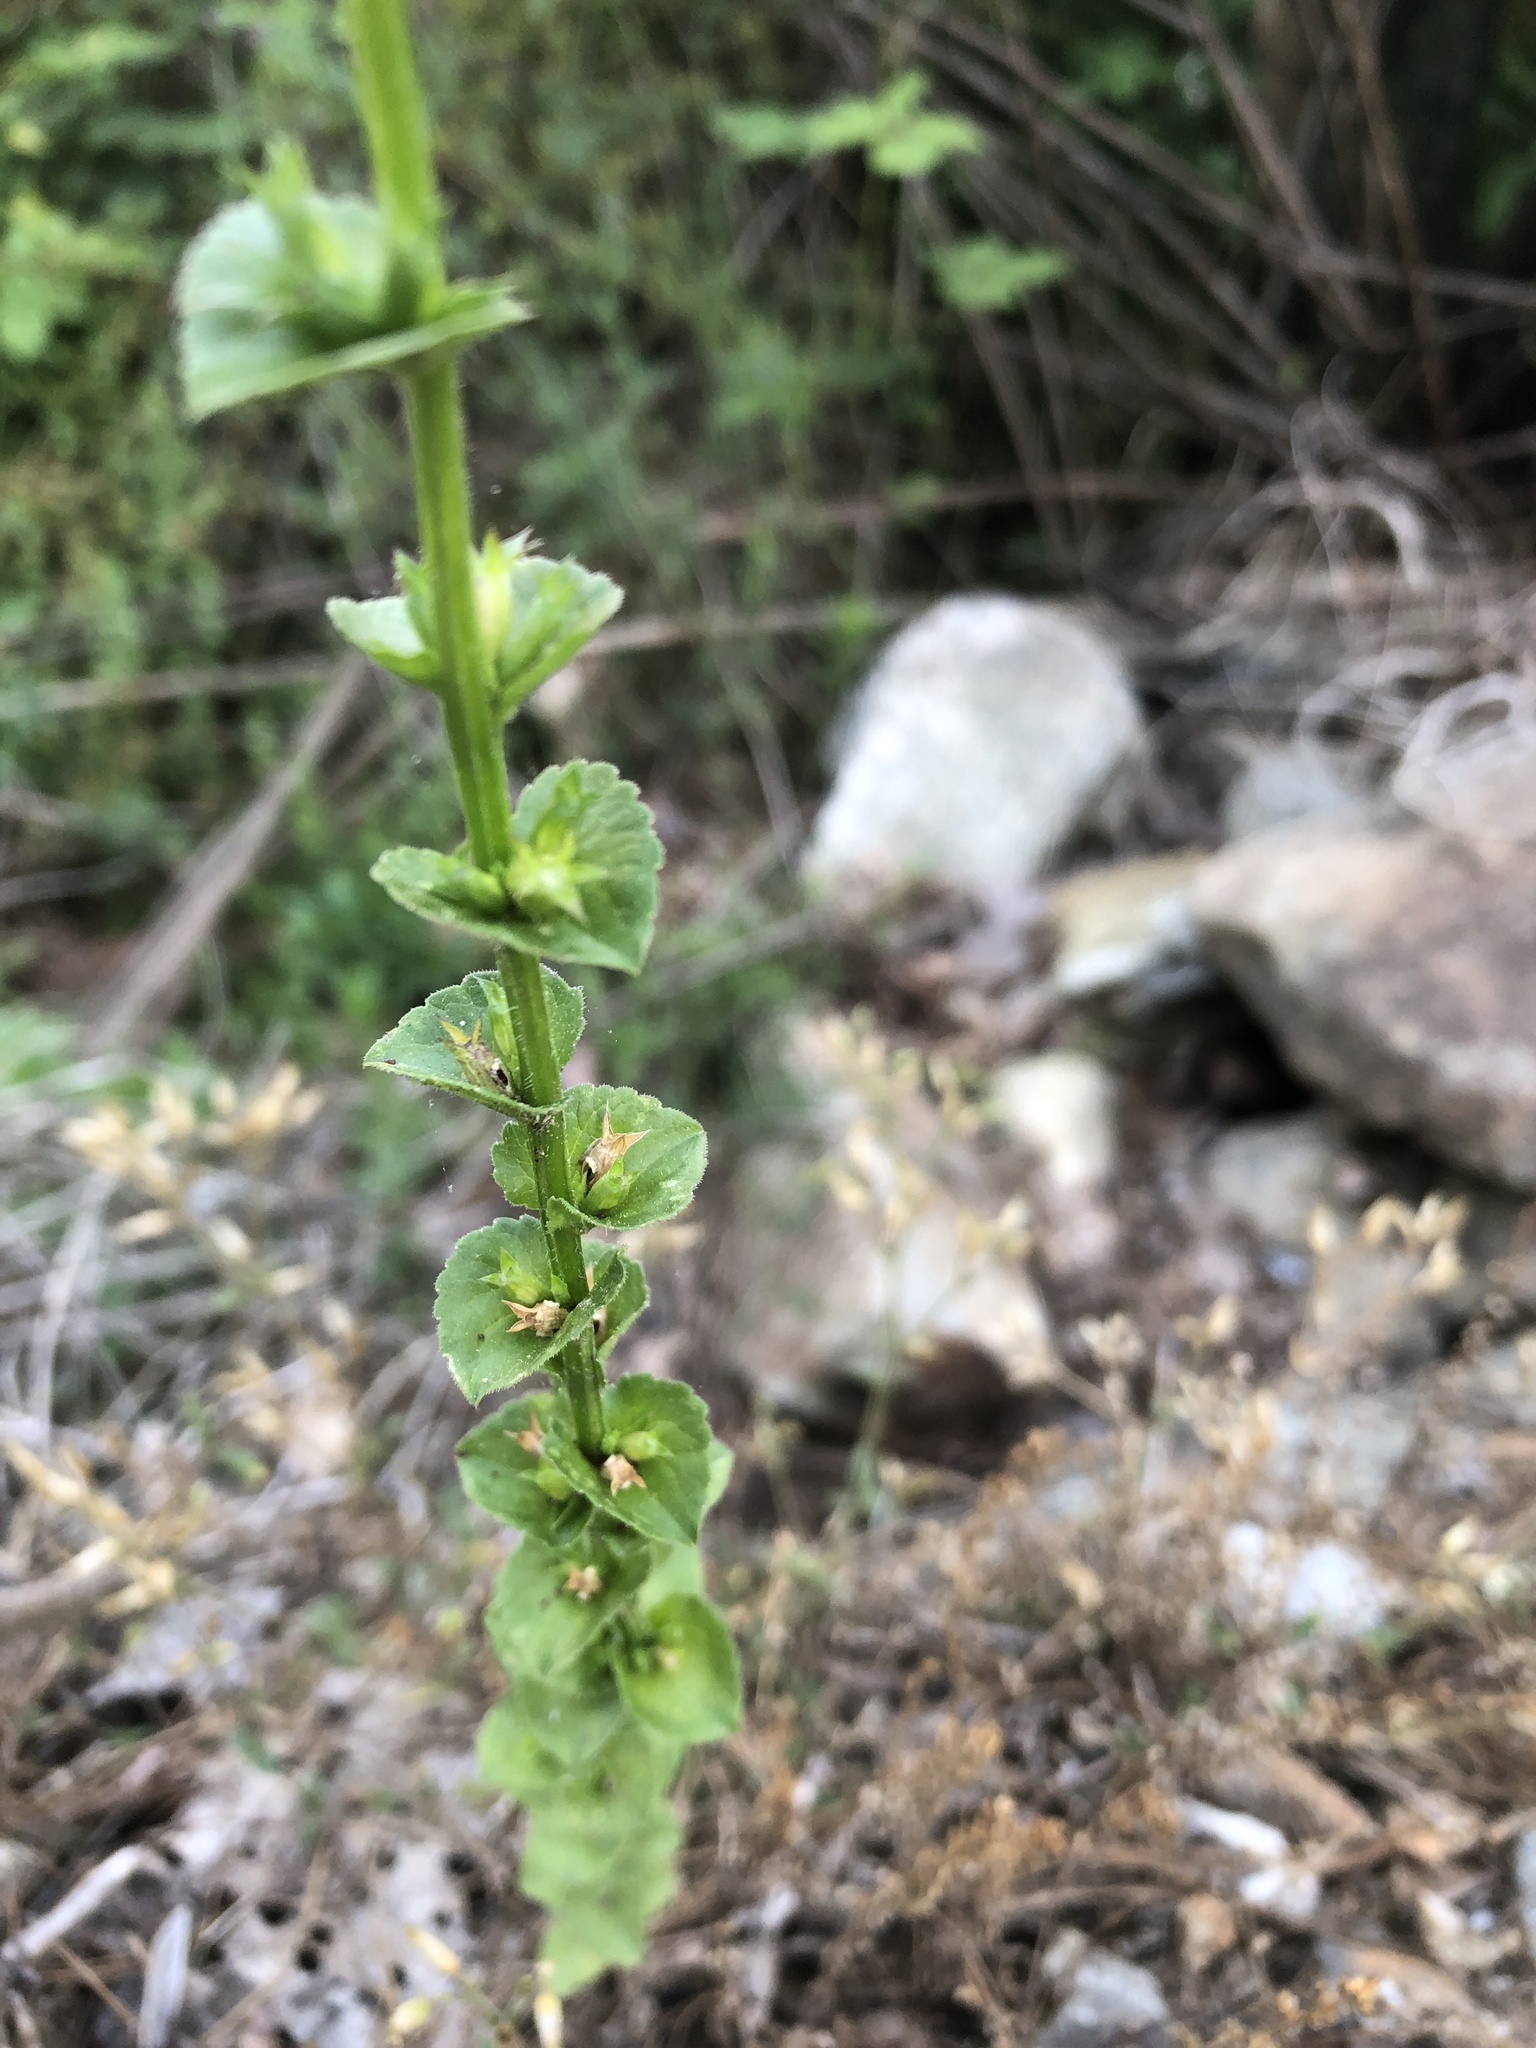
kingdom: Plantae
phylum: Tracheophyta
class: Magnoliopsida
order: Asterales
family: Campanulaceae
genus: Triodanis
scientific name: Triodanis perfoliata
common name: Clasping venus' looking-glass
